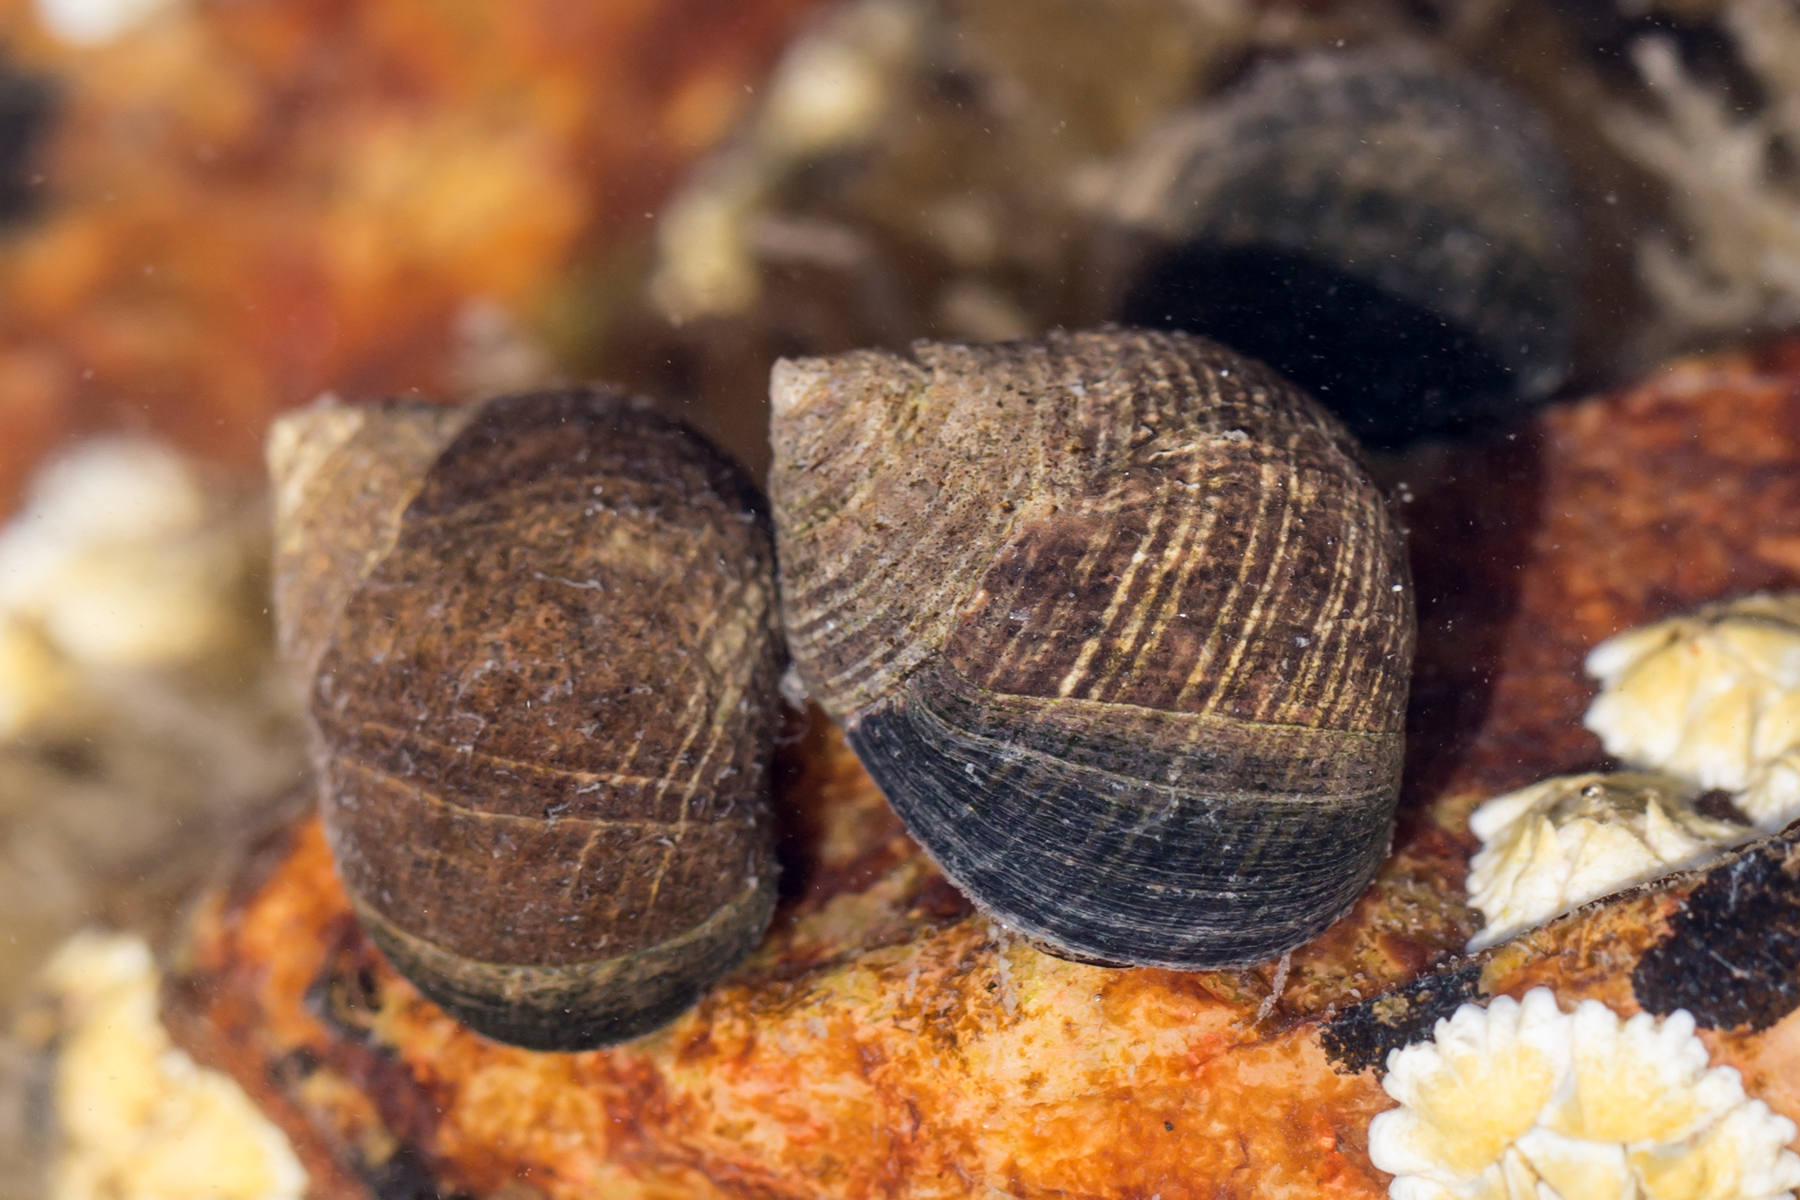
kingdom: Animalia
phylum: Mollusca
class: Gastropoda
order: Littorinimorpha
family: Littorinidae
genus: Littorina
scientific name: Littorina littorea
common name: Common periwinkle
